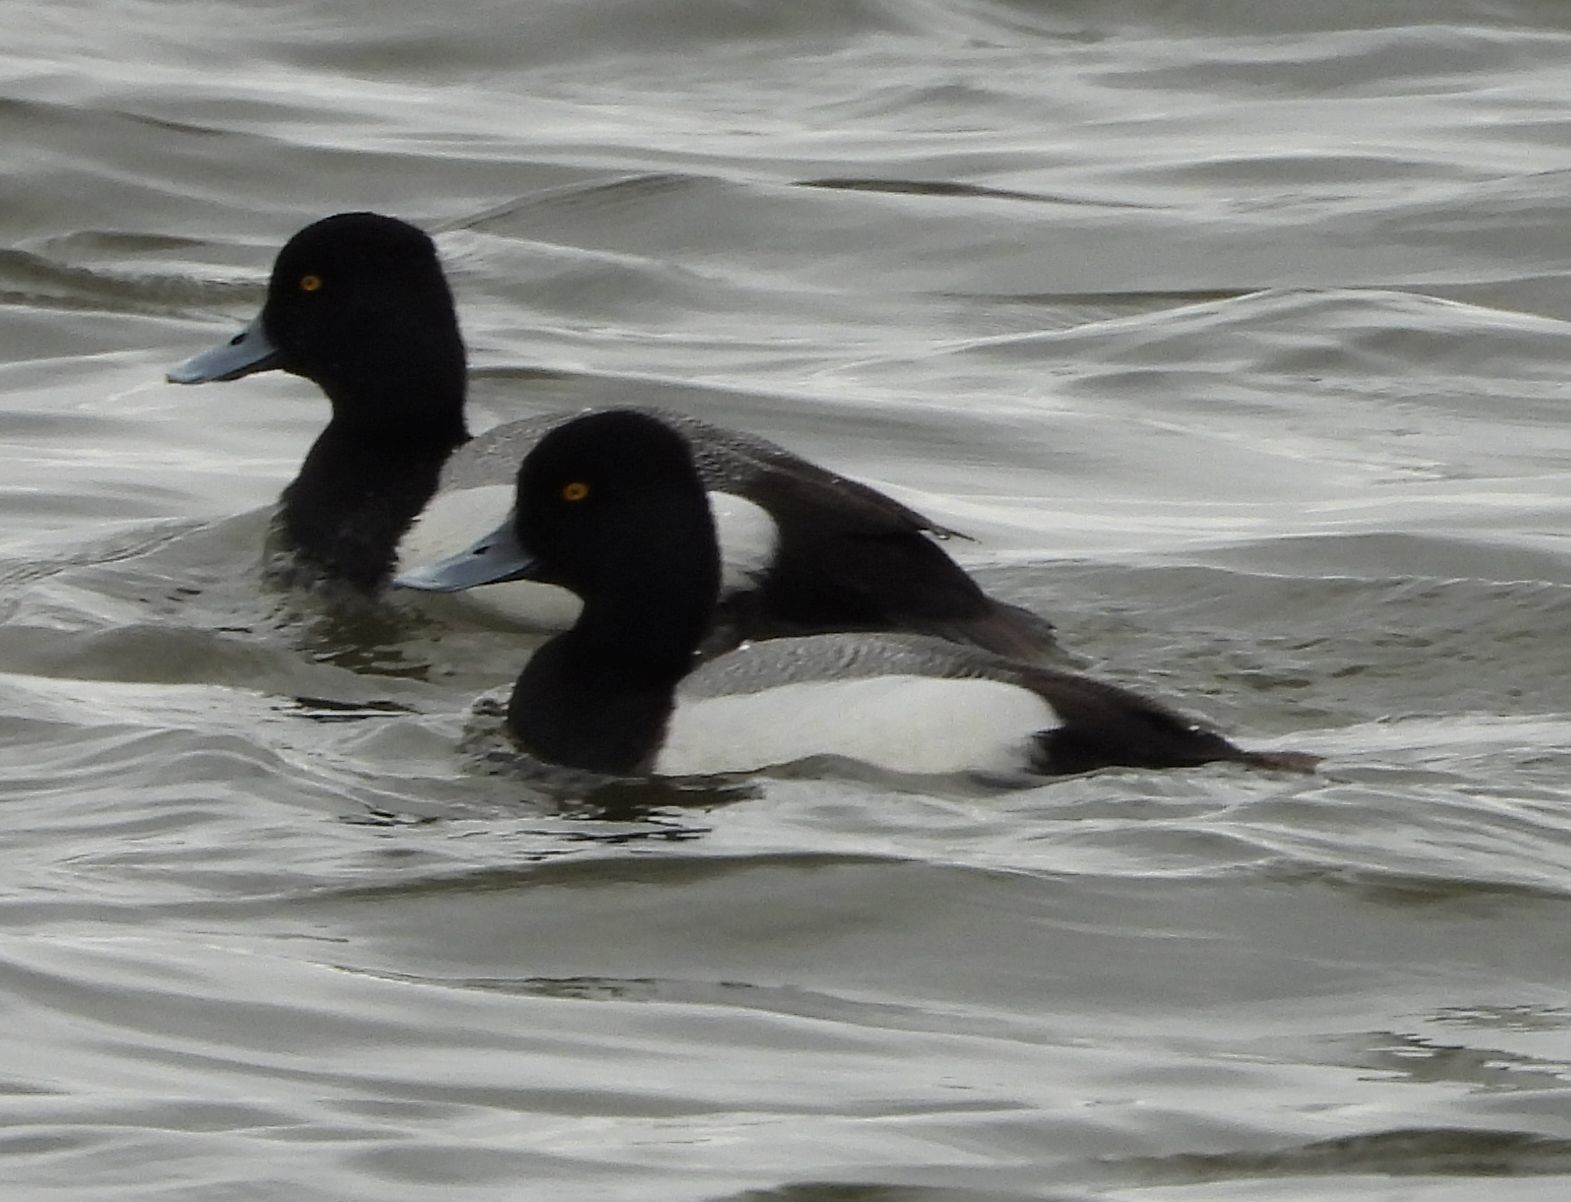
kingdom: Animalia
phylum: Chordata
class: Aves
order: Anseriformes
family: Anatidae
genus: Aythya
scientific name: Aythya affinis
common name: Lesser scaup
